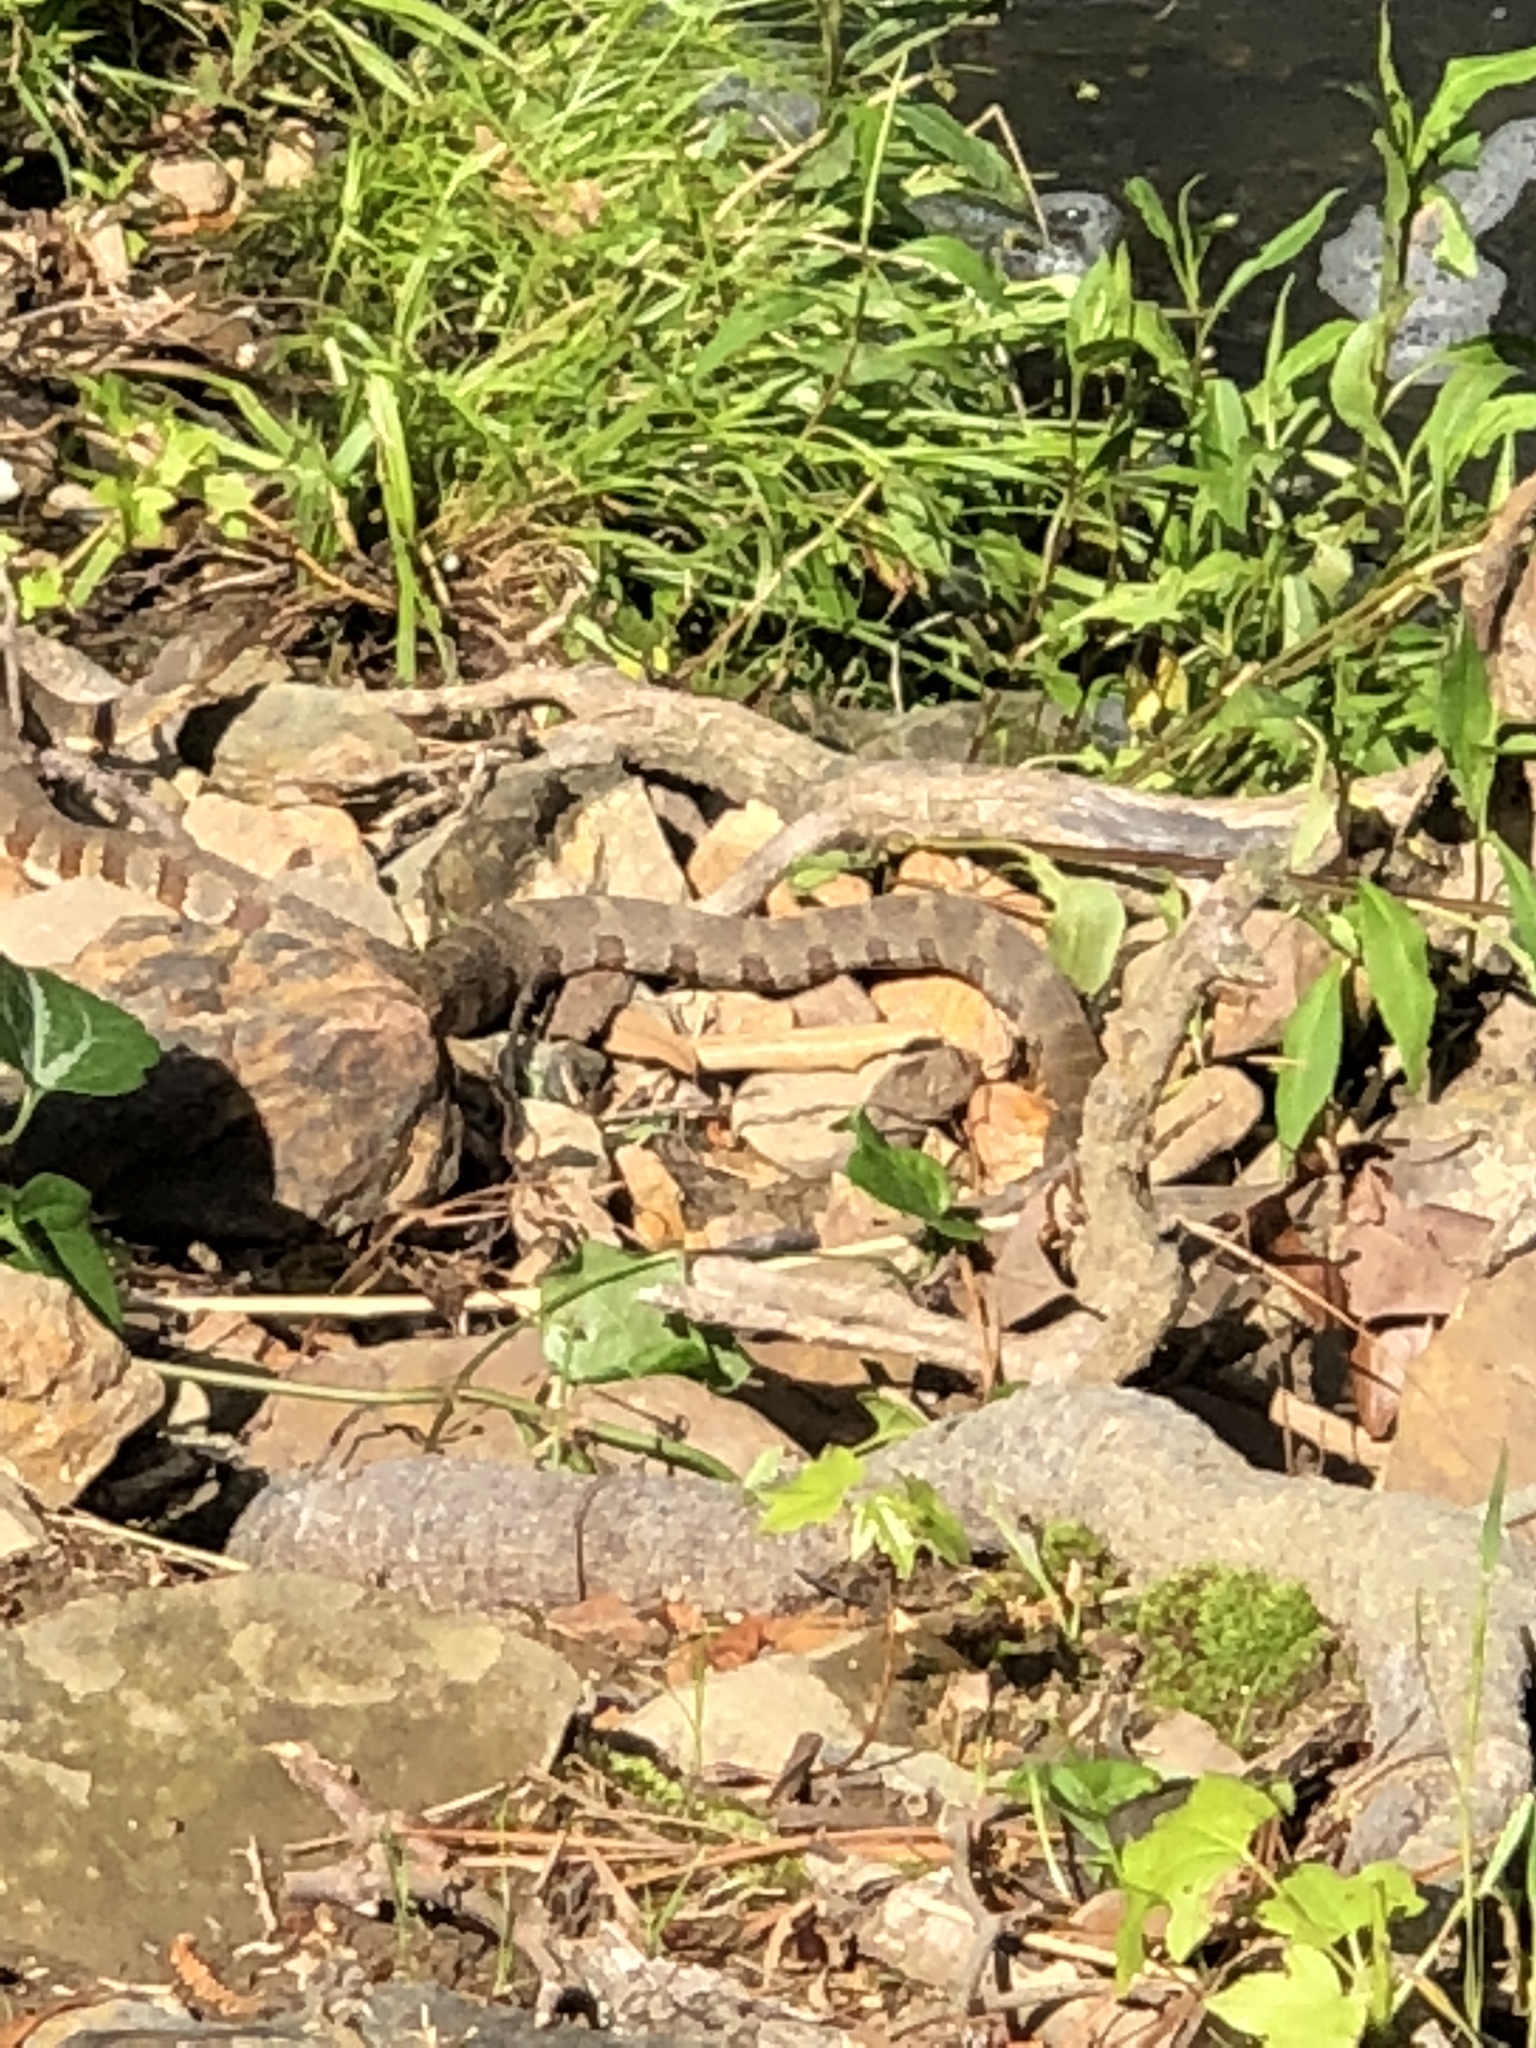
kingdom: Animalia
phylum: Chordata
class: Squamata
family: Colubridae
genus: Nerodia
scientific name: Nerodia sipedon
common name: Northern water snake
